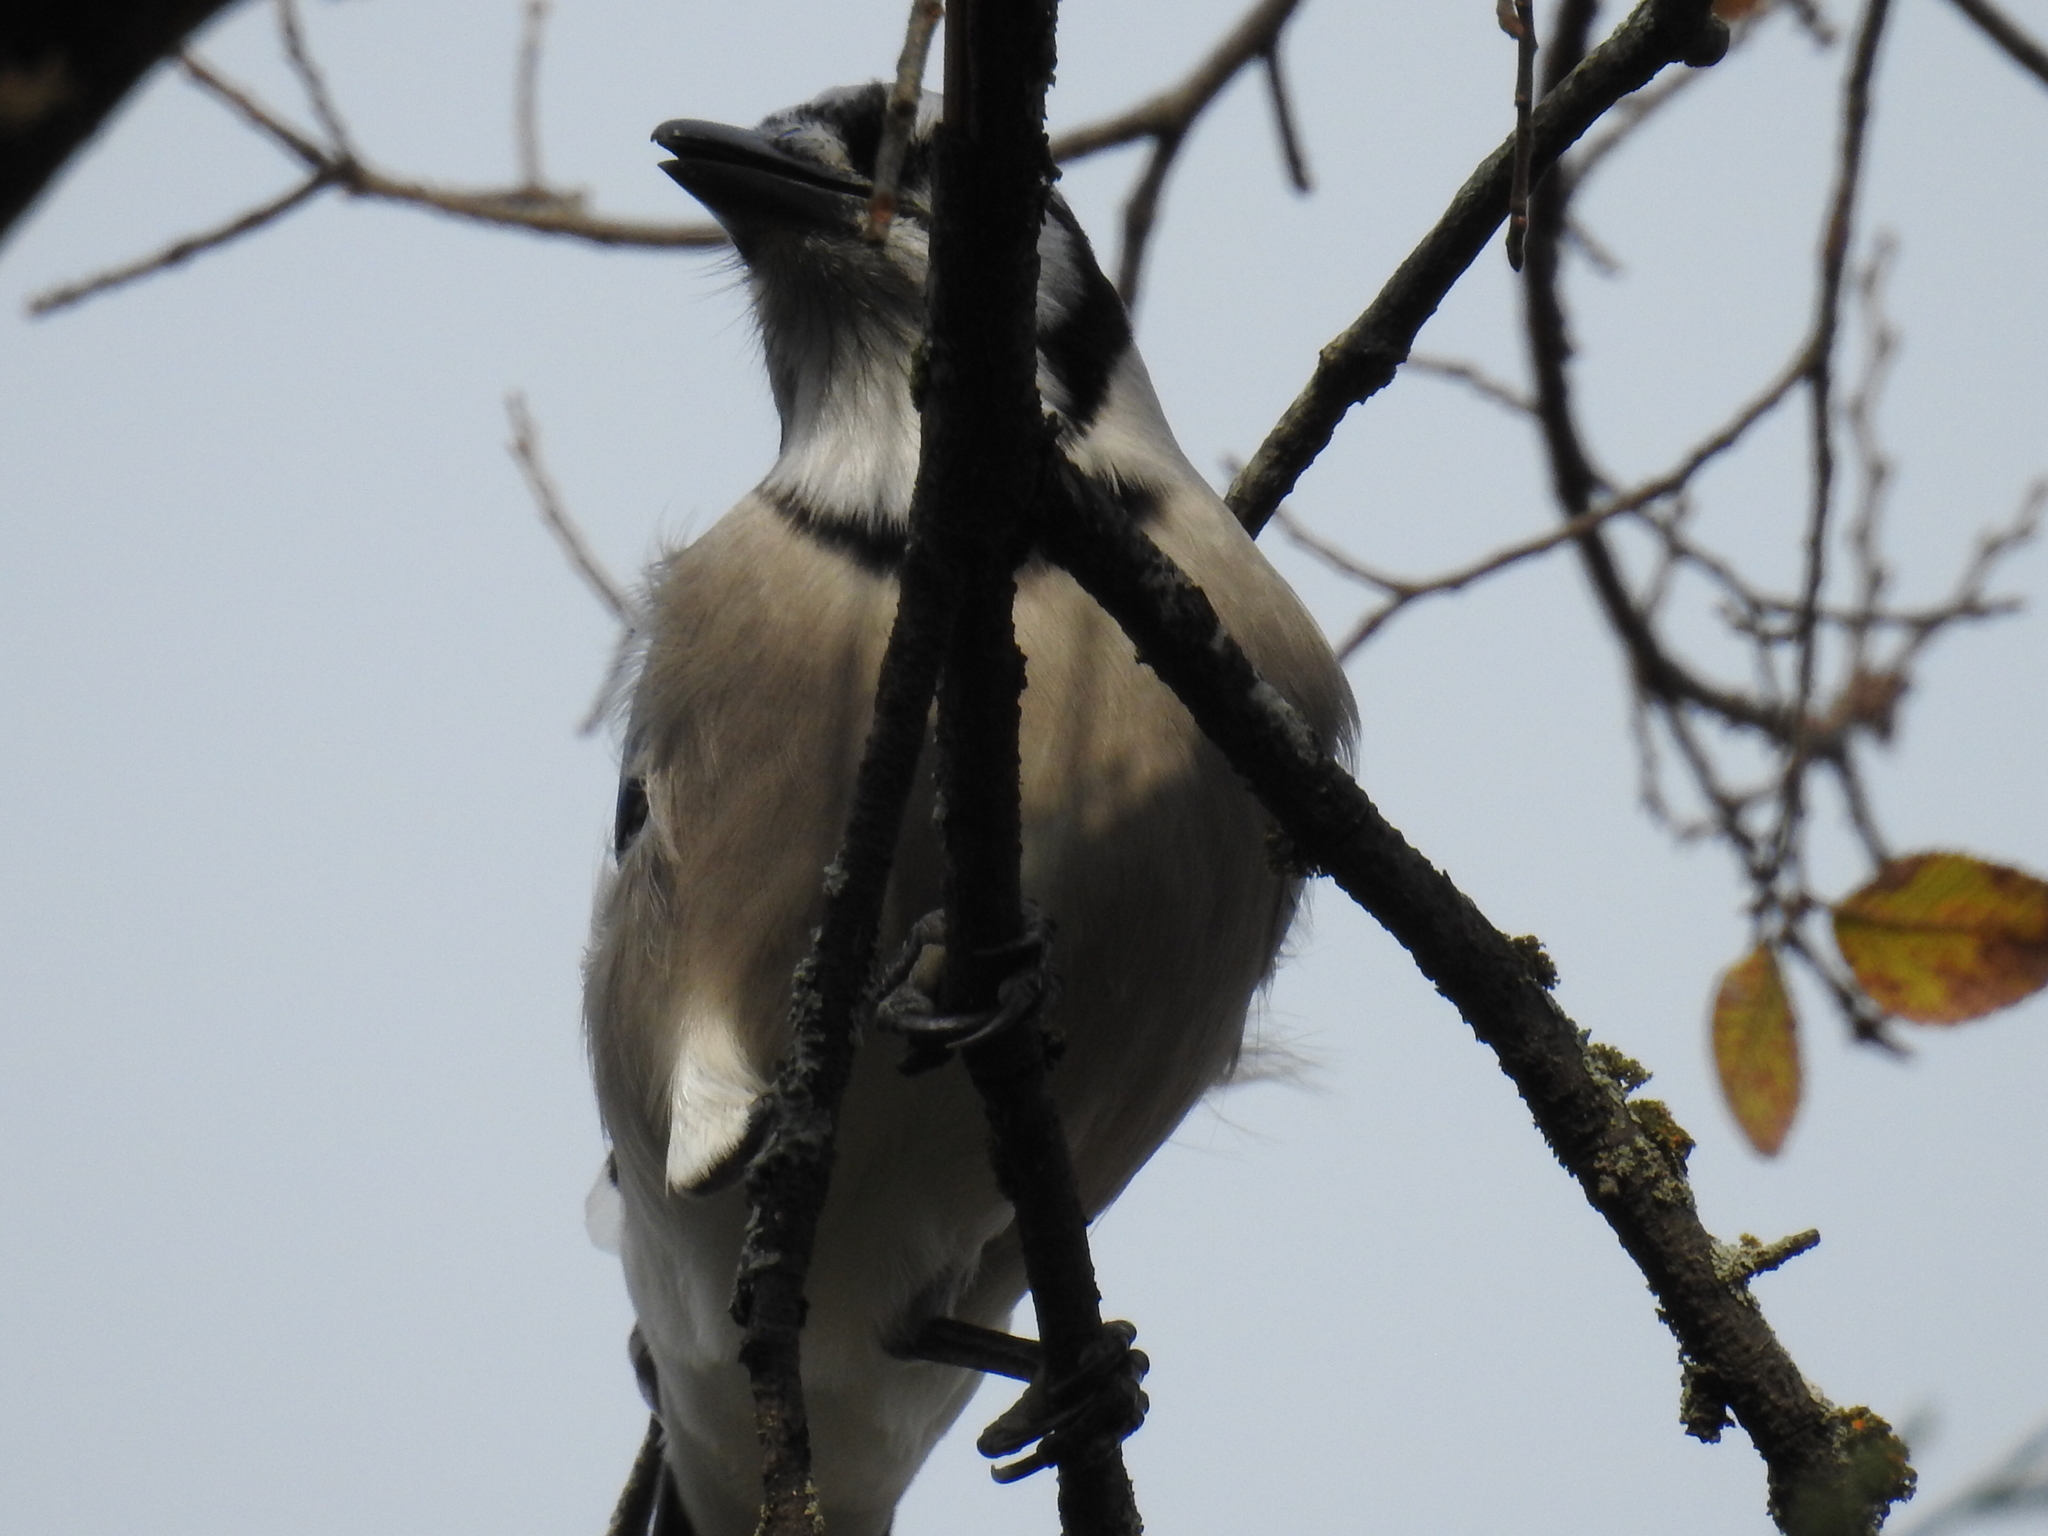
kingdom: Animalia
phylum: Chordata
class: Aves
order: Passeriformes
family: Corvidae
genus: Cyanocitta
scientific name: Cyanocitta cristata
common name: Blue jay
